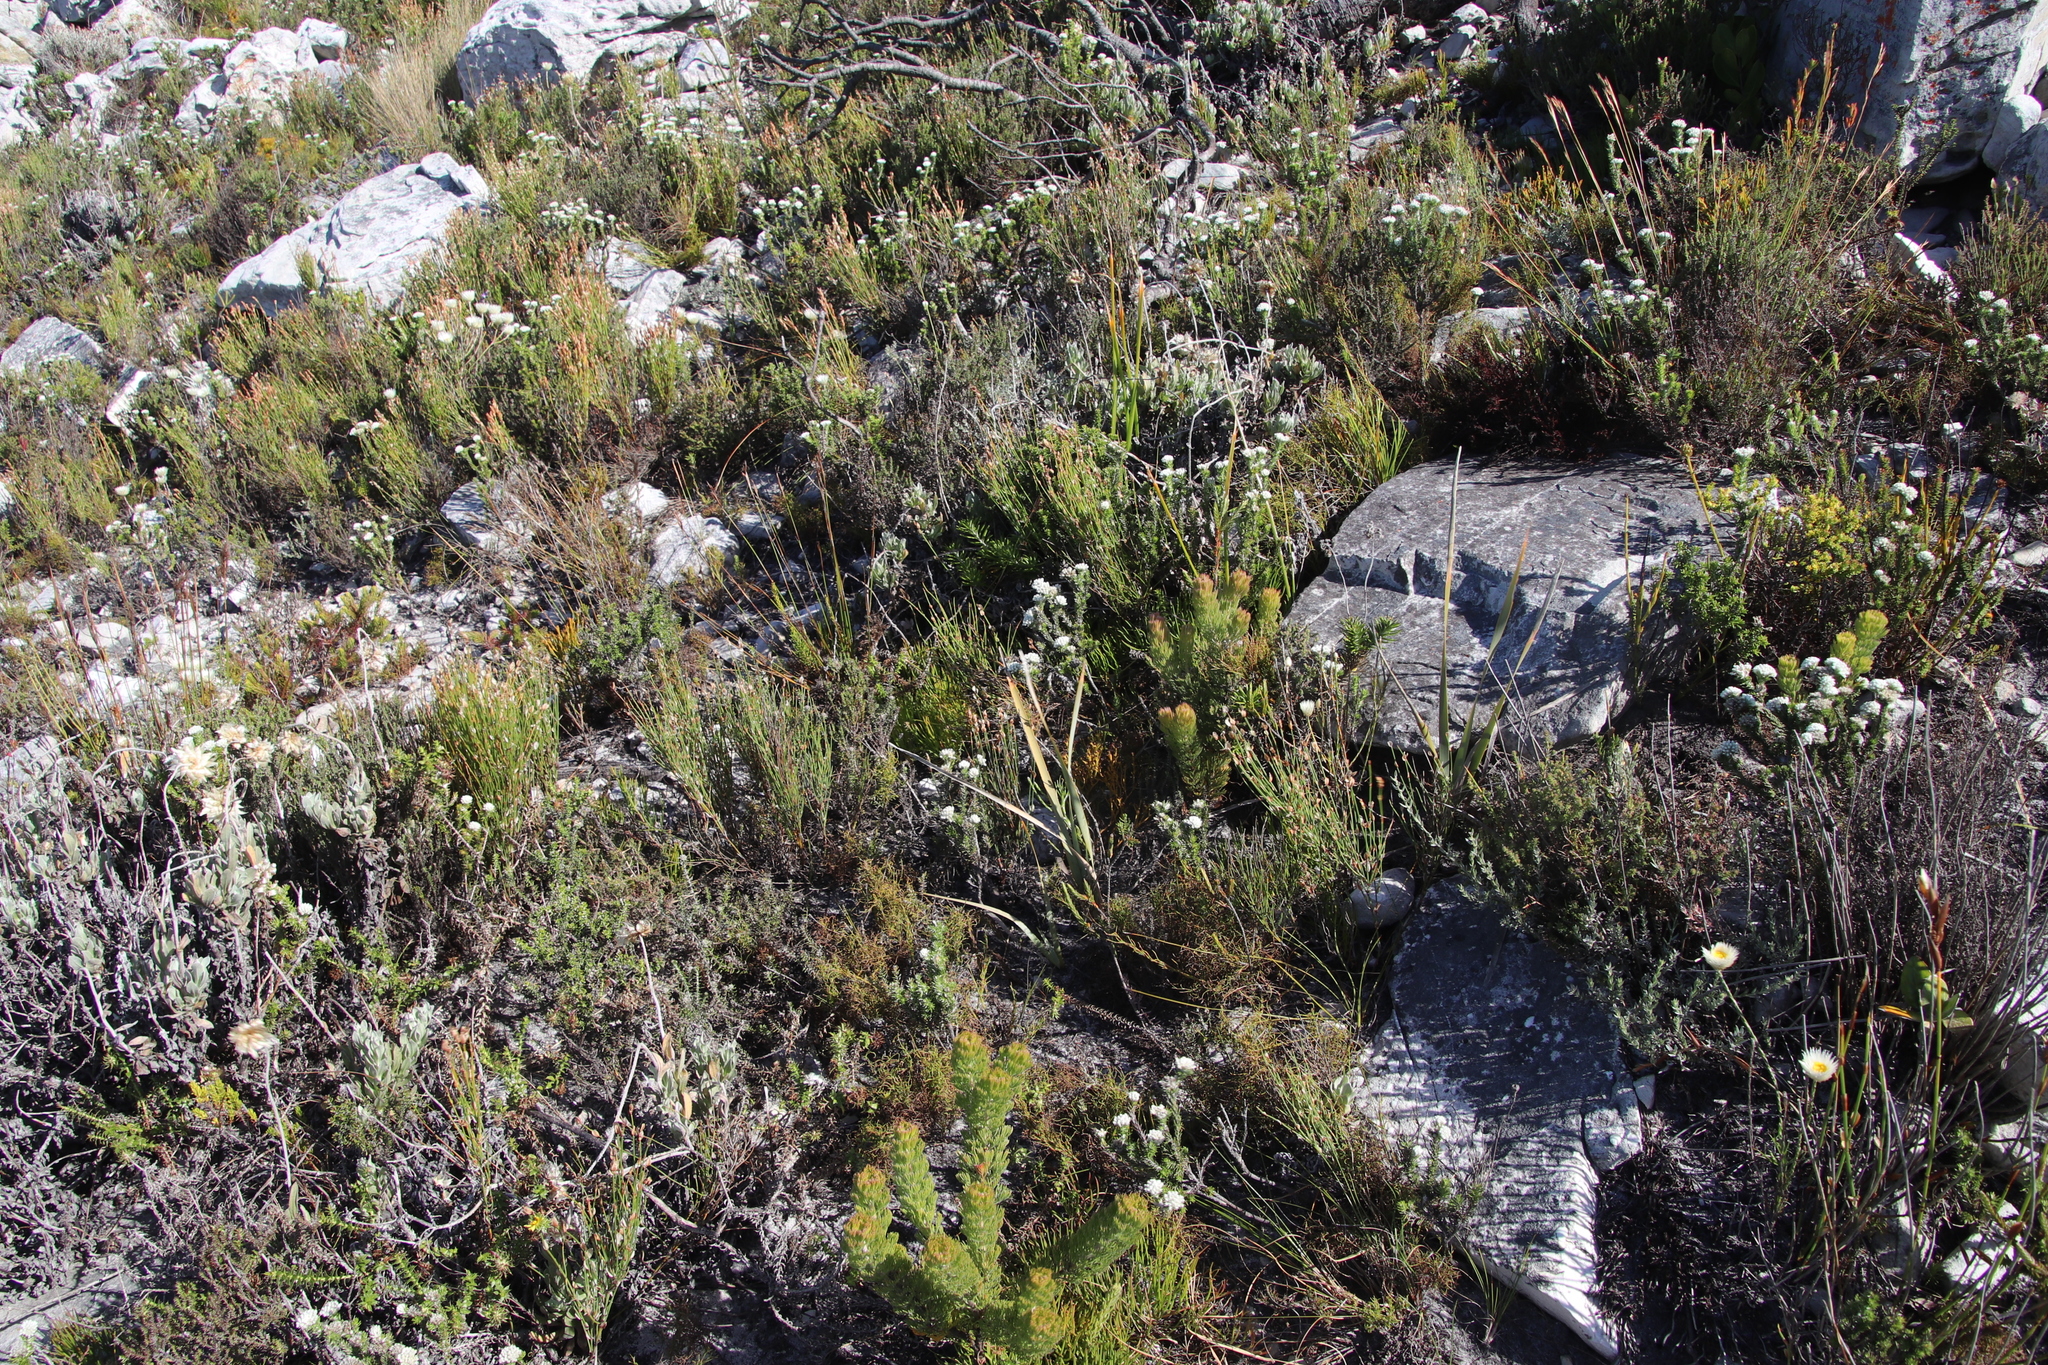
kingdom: Plantae
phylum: Tracheophyta
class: Magnoliopsida
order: Proteales
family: Proteaceae
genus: Serruria
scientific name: Serruria villosa
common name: Golden spiderhead
